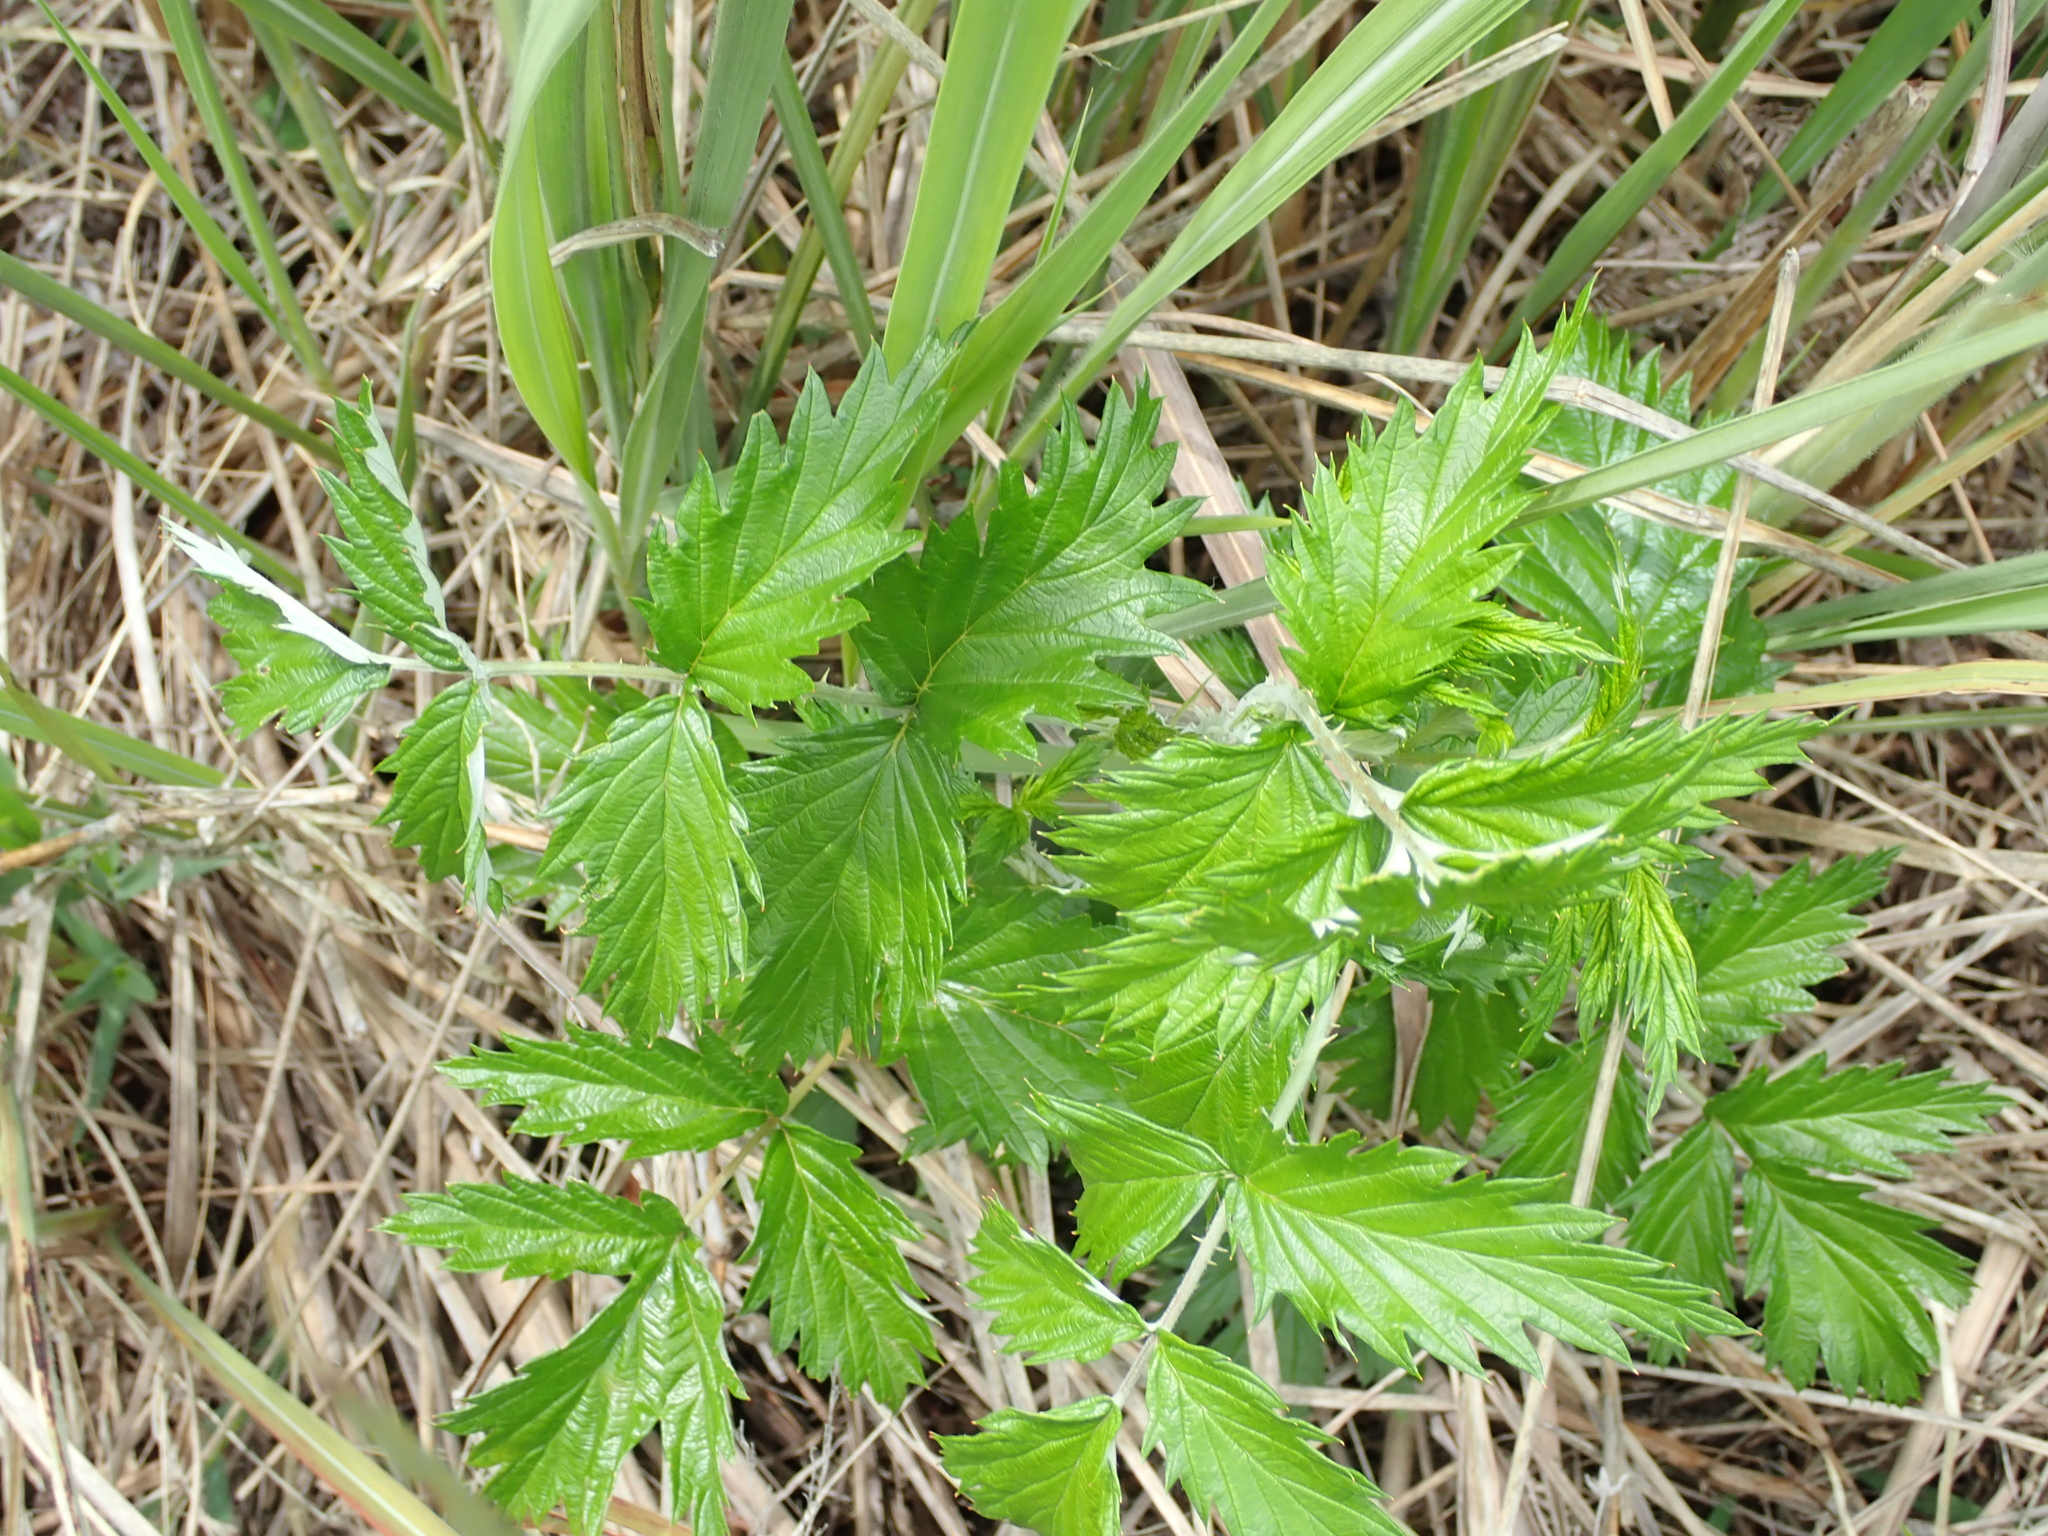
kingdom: Plantae
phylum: Tracheophyta
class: Magnoliopsida
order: Rosales
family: Rosaceae
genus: Rubus
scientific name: Rubus ludwigii
